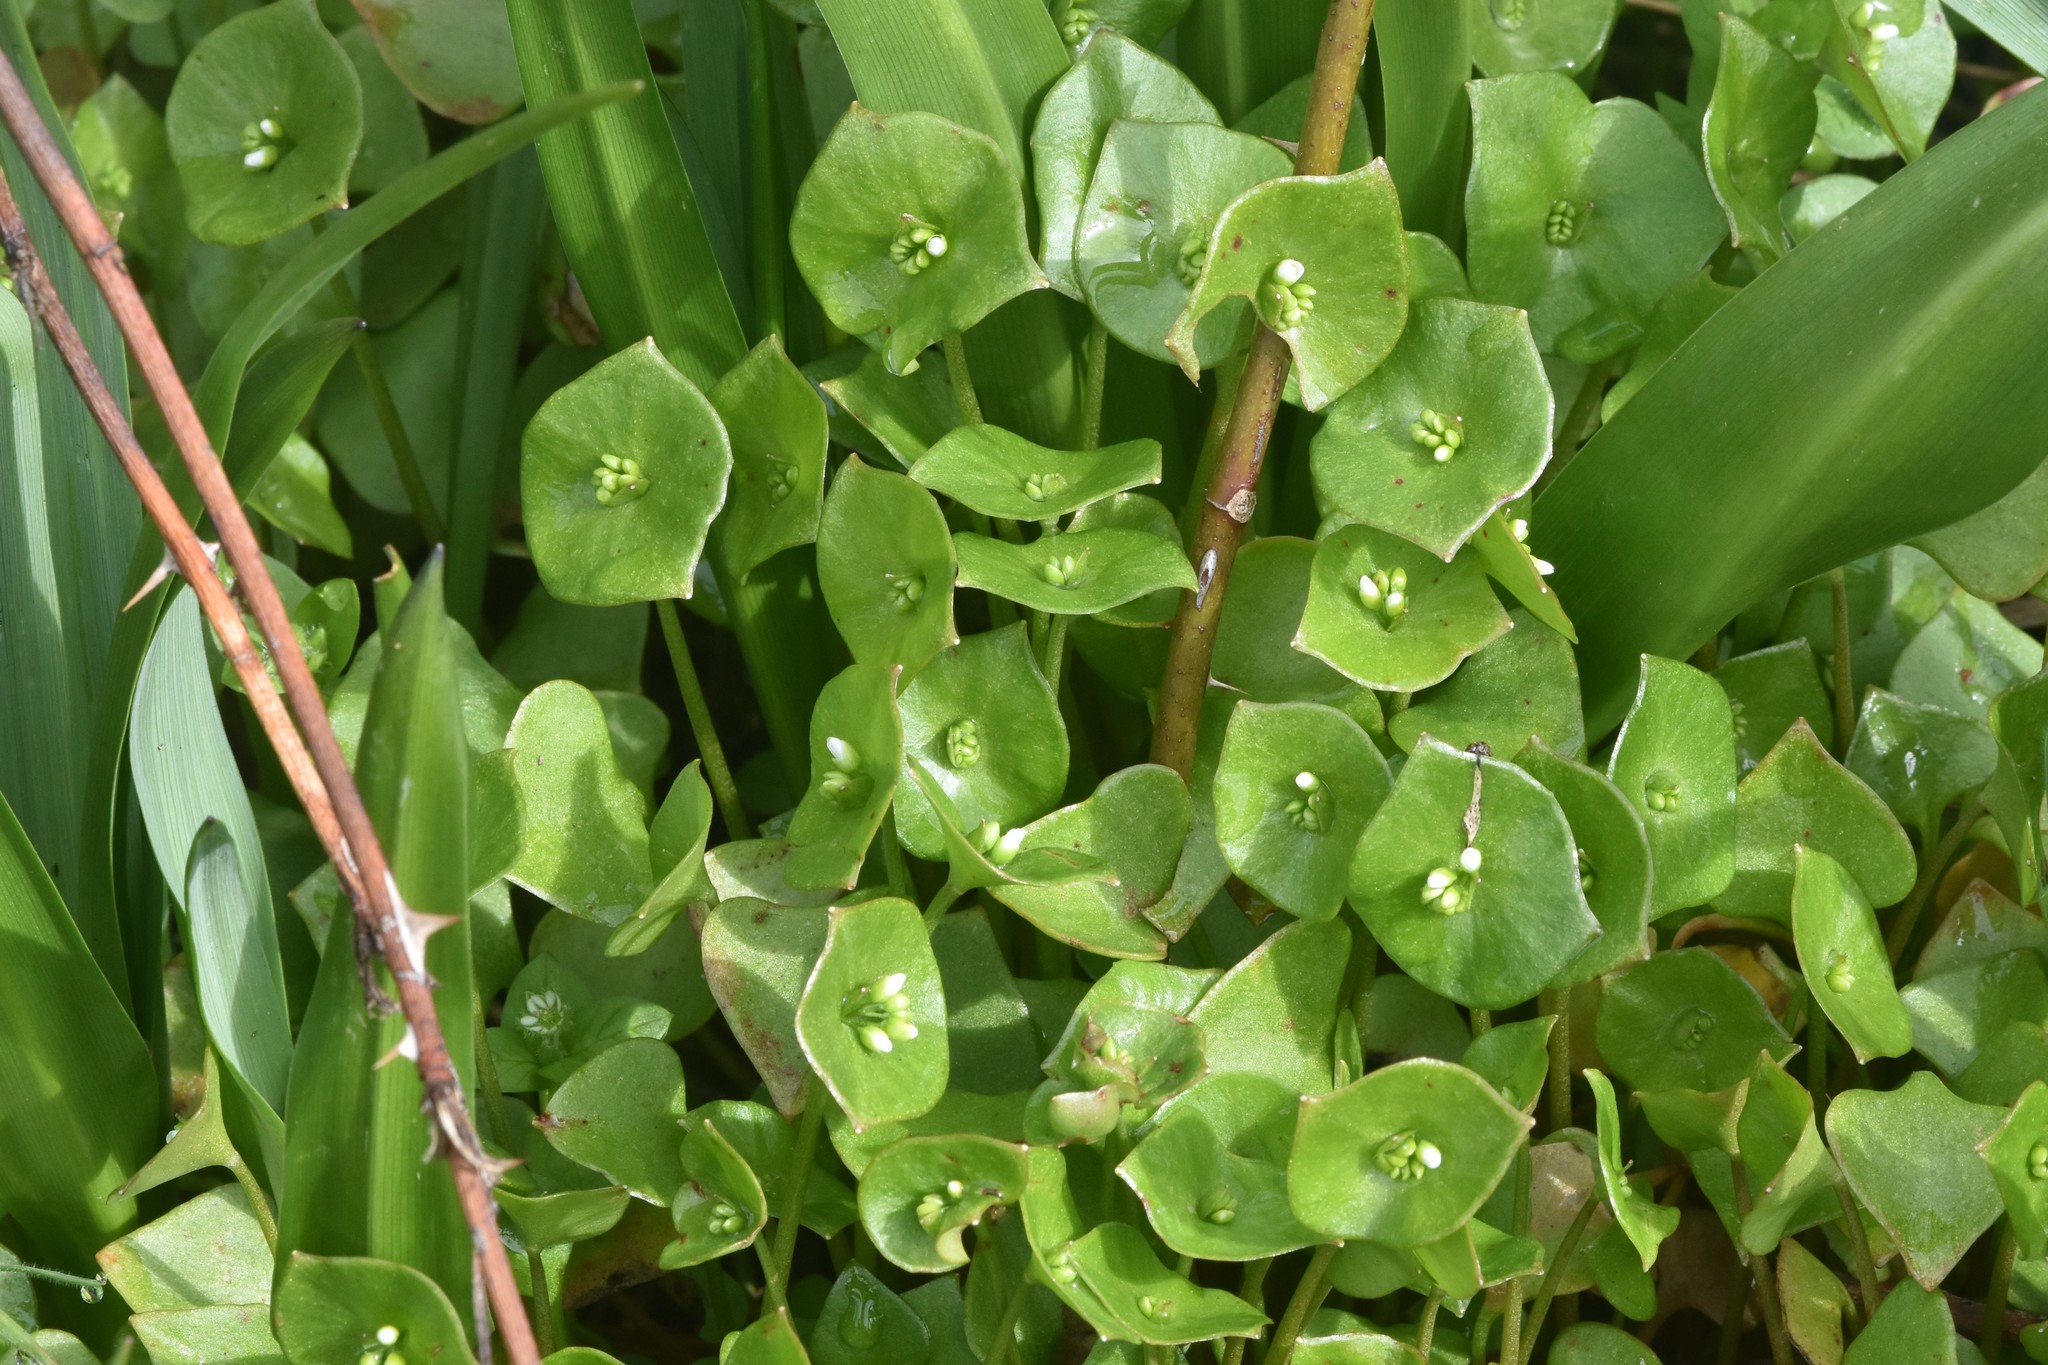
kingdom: Plantae
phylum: Tracheophyta
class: Magnoliopsida
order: Caryophyllales
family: Montiaceae
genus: Claytonia
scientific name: Claytonia perfoliata
